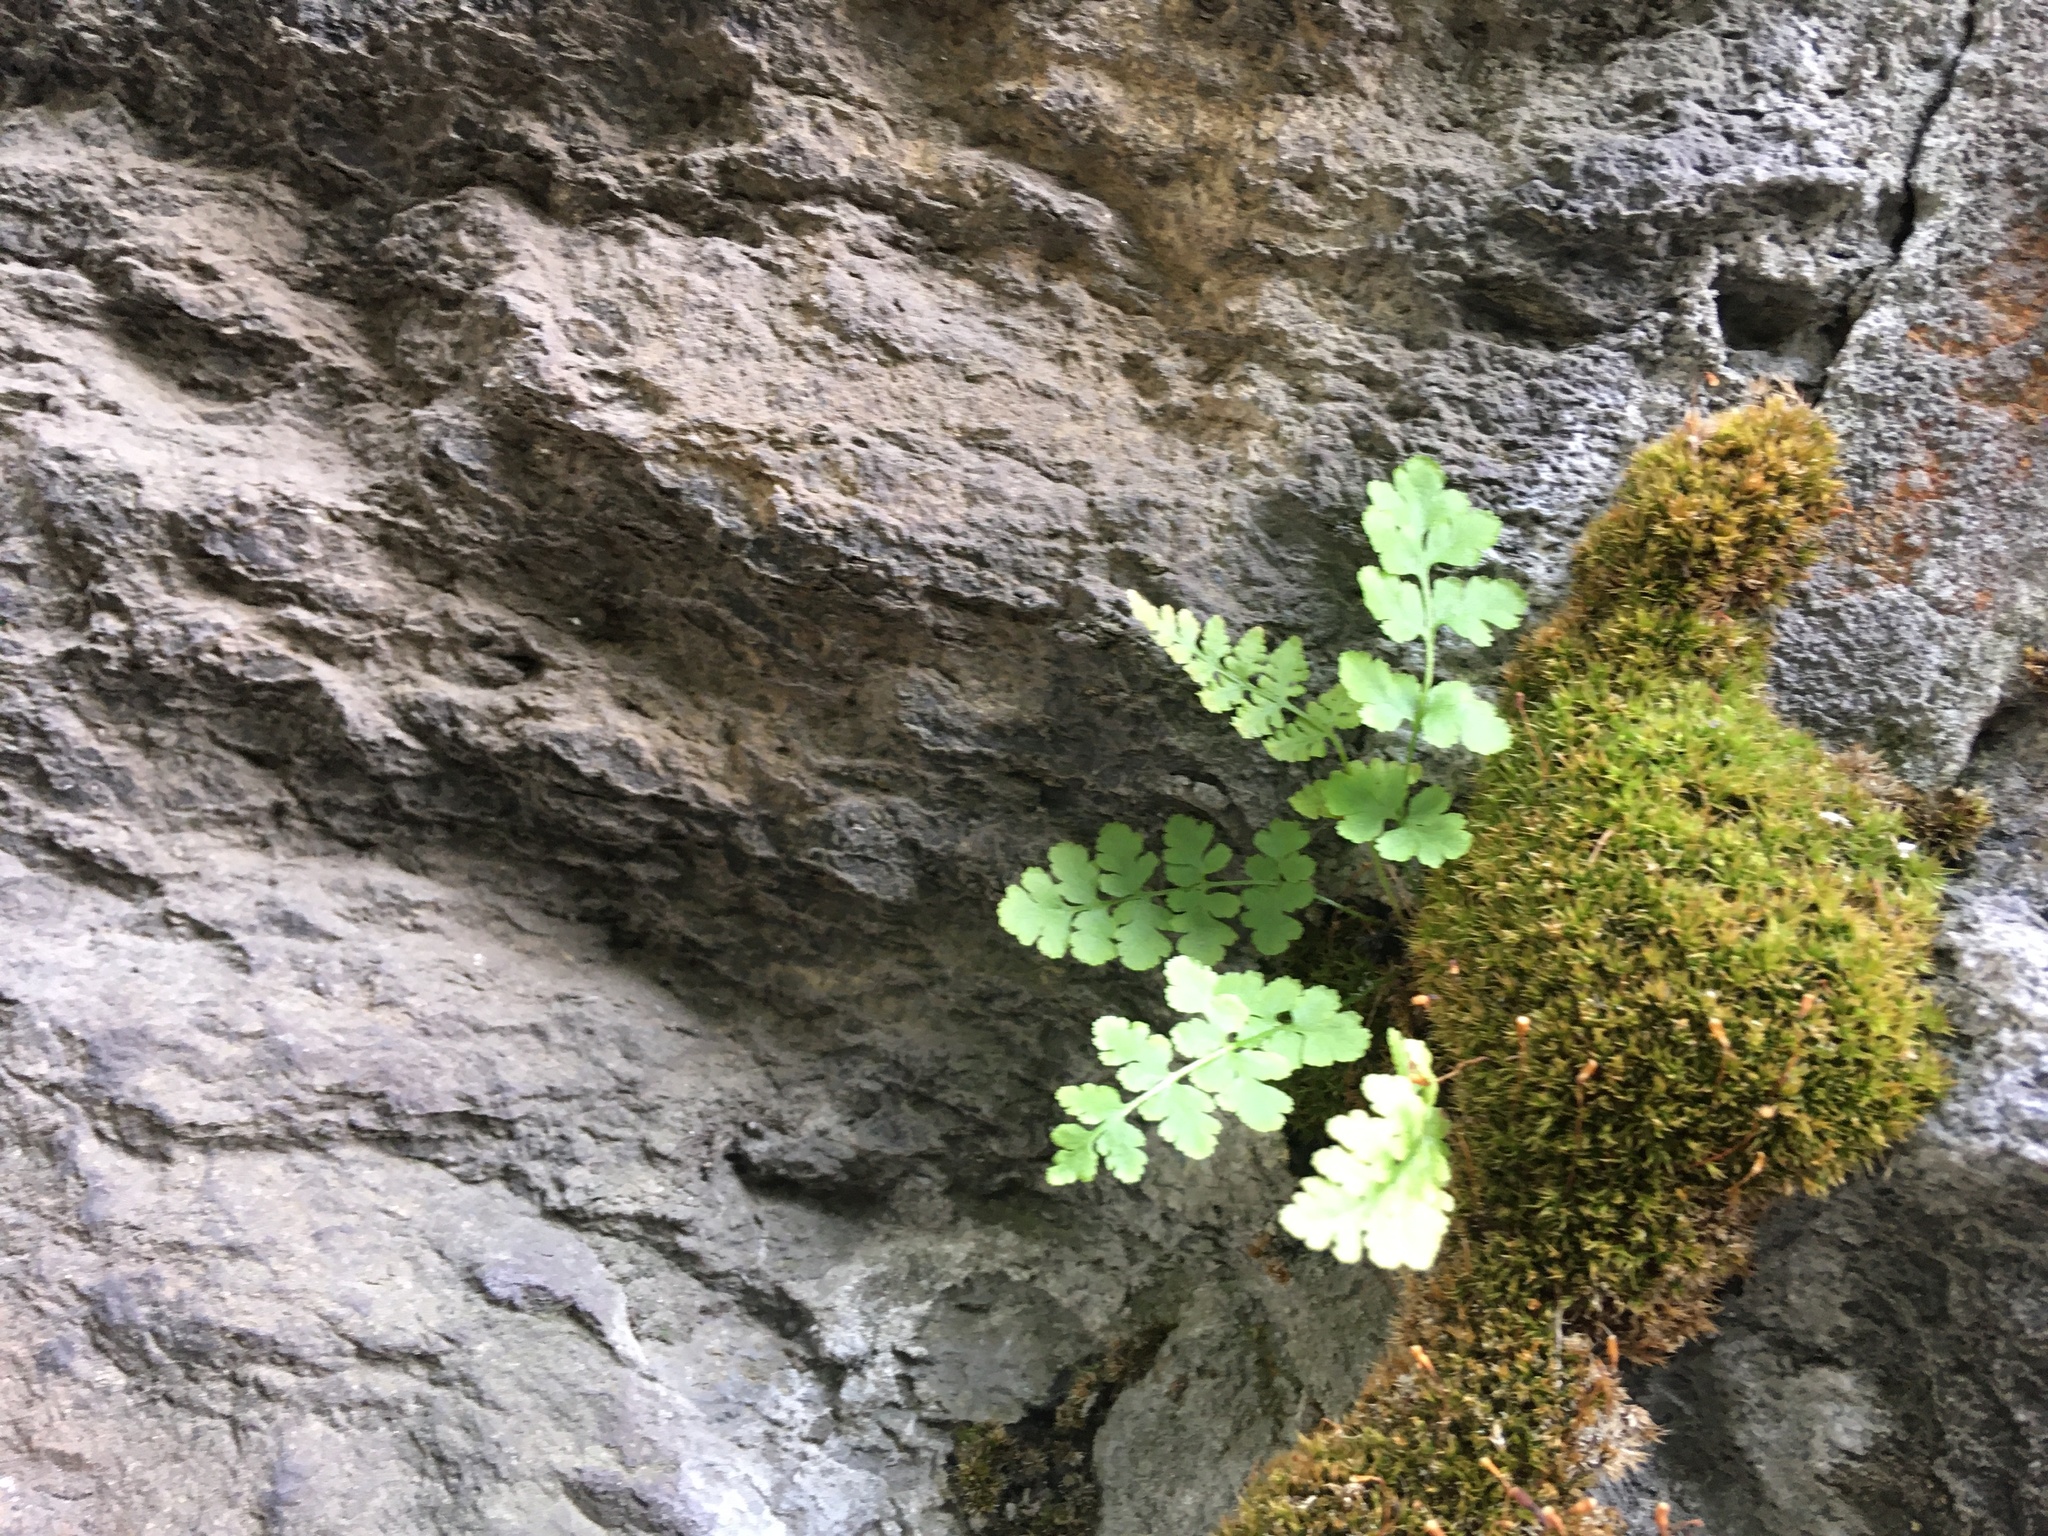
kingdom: Plantae
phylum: Tracheophyta
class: Polypodiopsida
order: Polypodiales
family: Woodsiaceae
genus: Physematium
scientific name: Physematium obtusum
